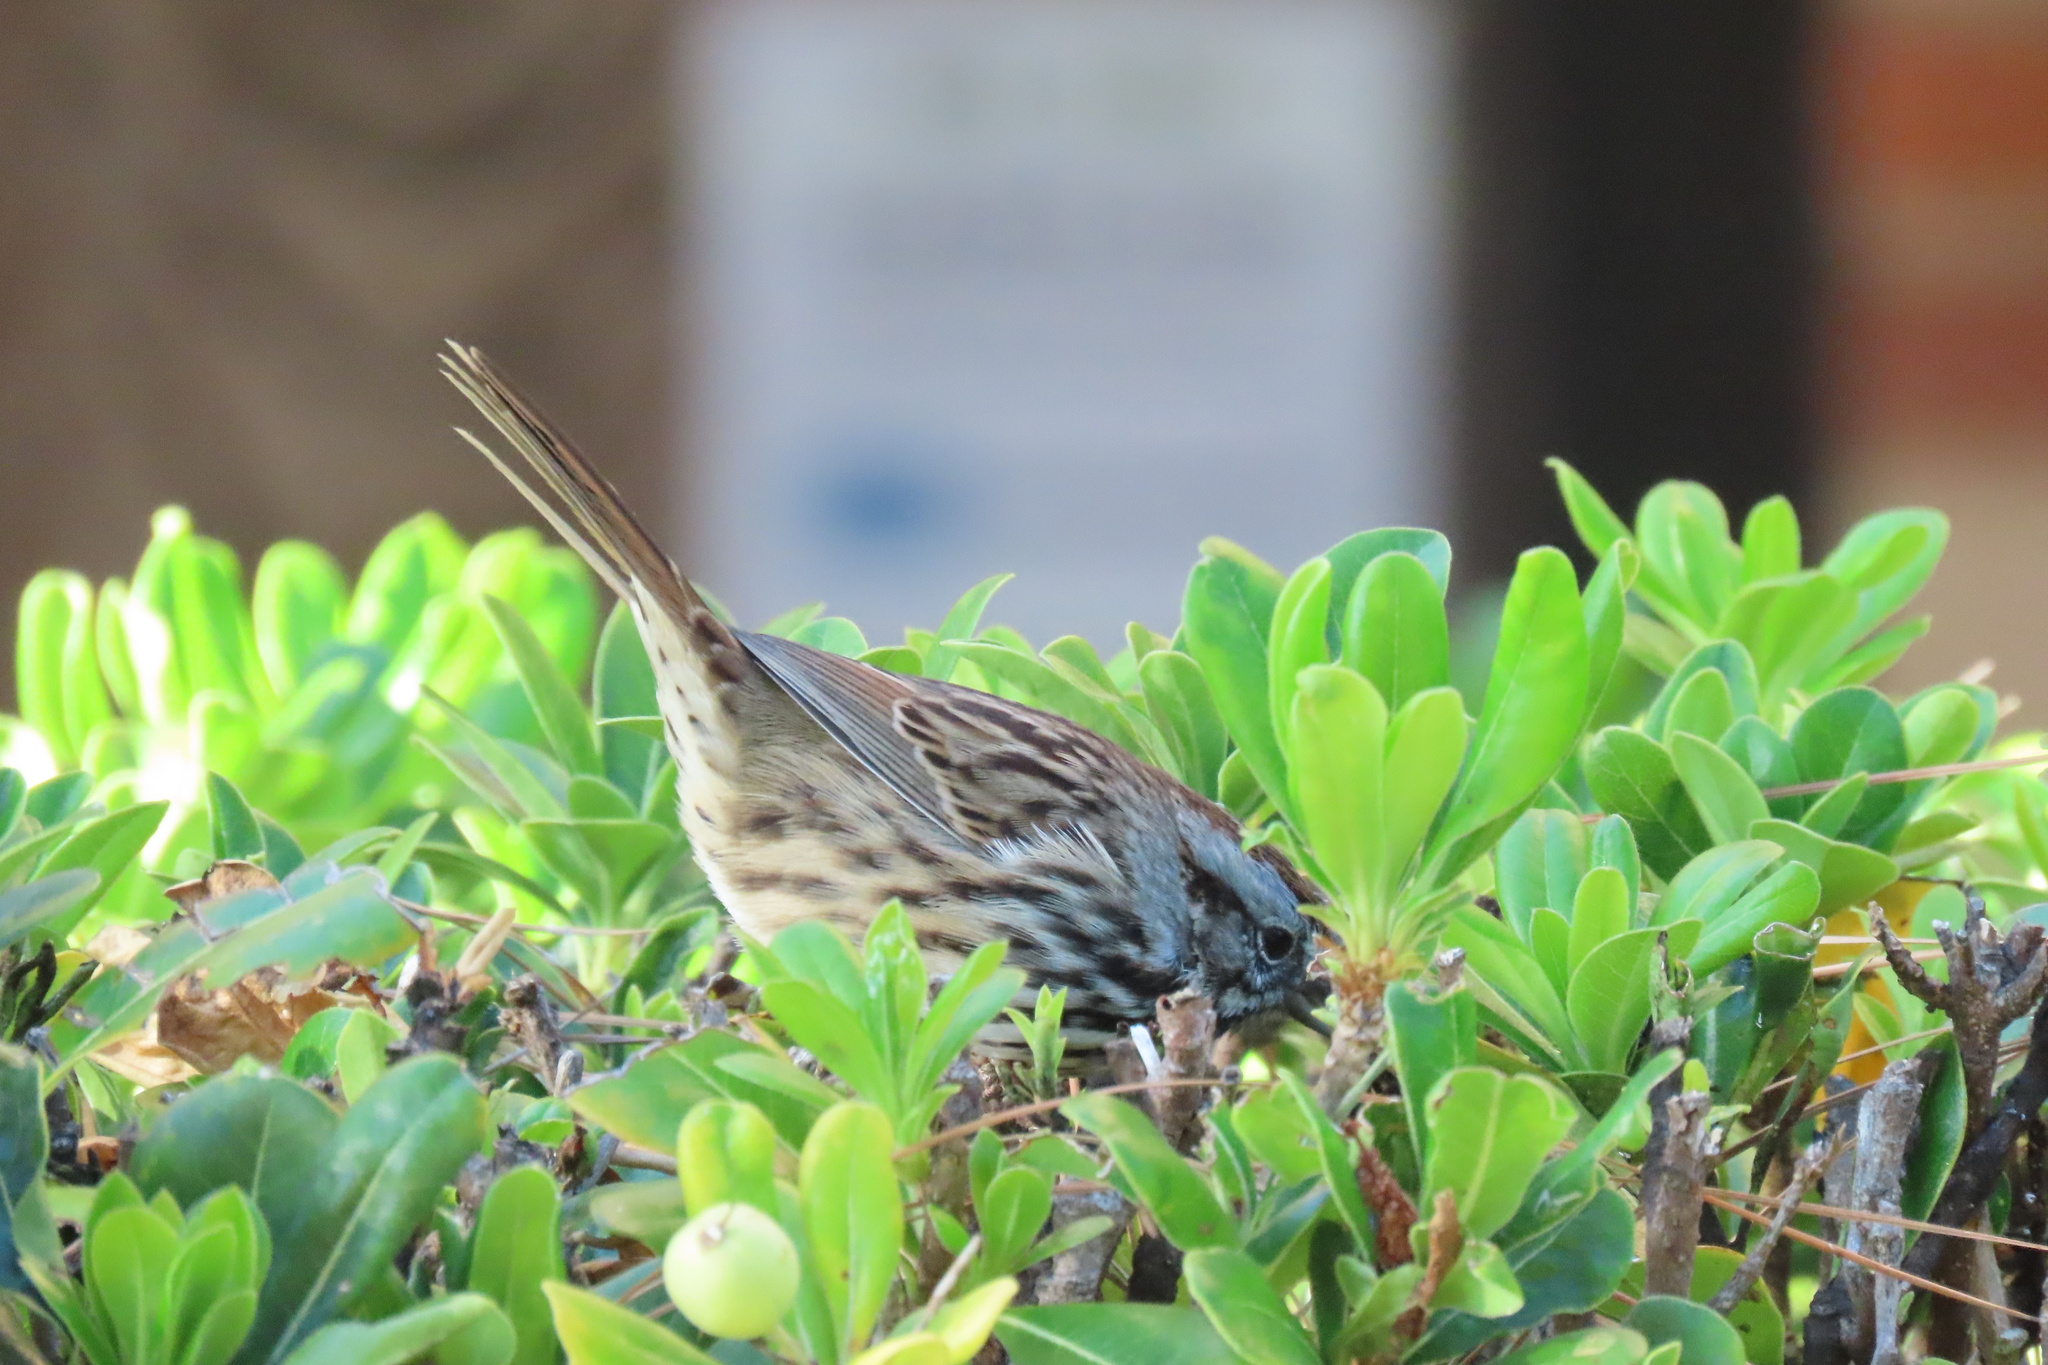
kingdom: Animalia
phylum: Chordata
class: Aves
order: Passeriformes
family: Passerellidae
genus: Melospiza
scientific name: Melospiza melodia
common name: Song sparrow
